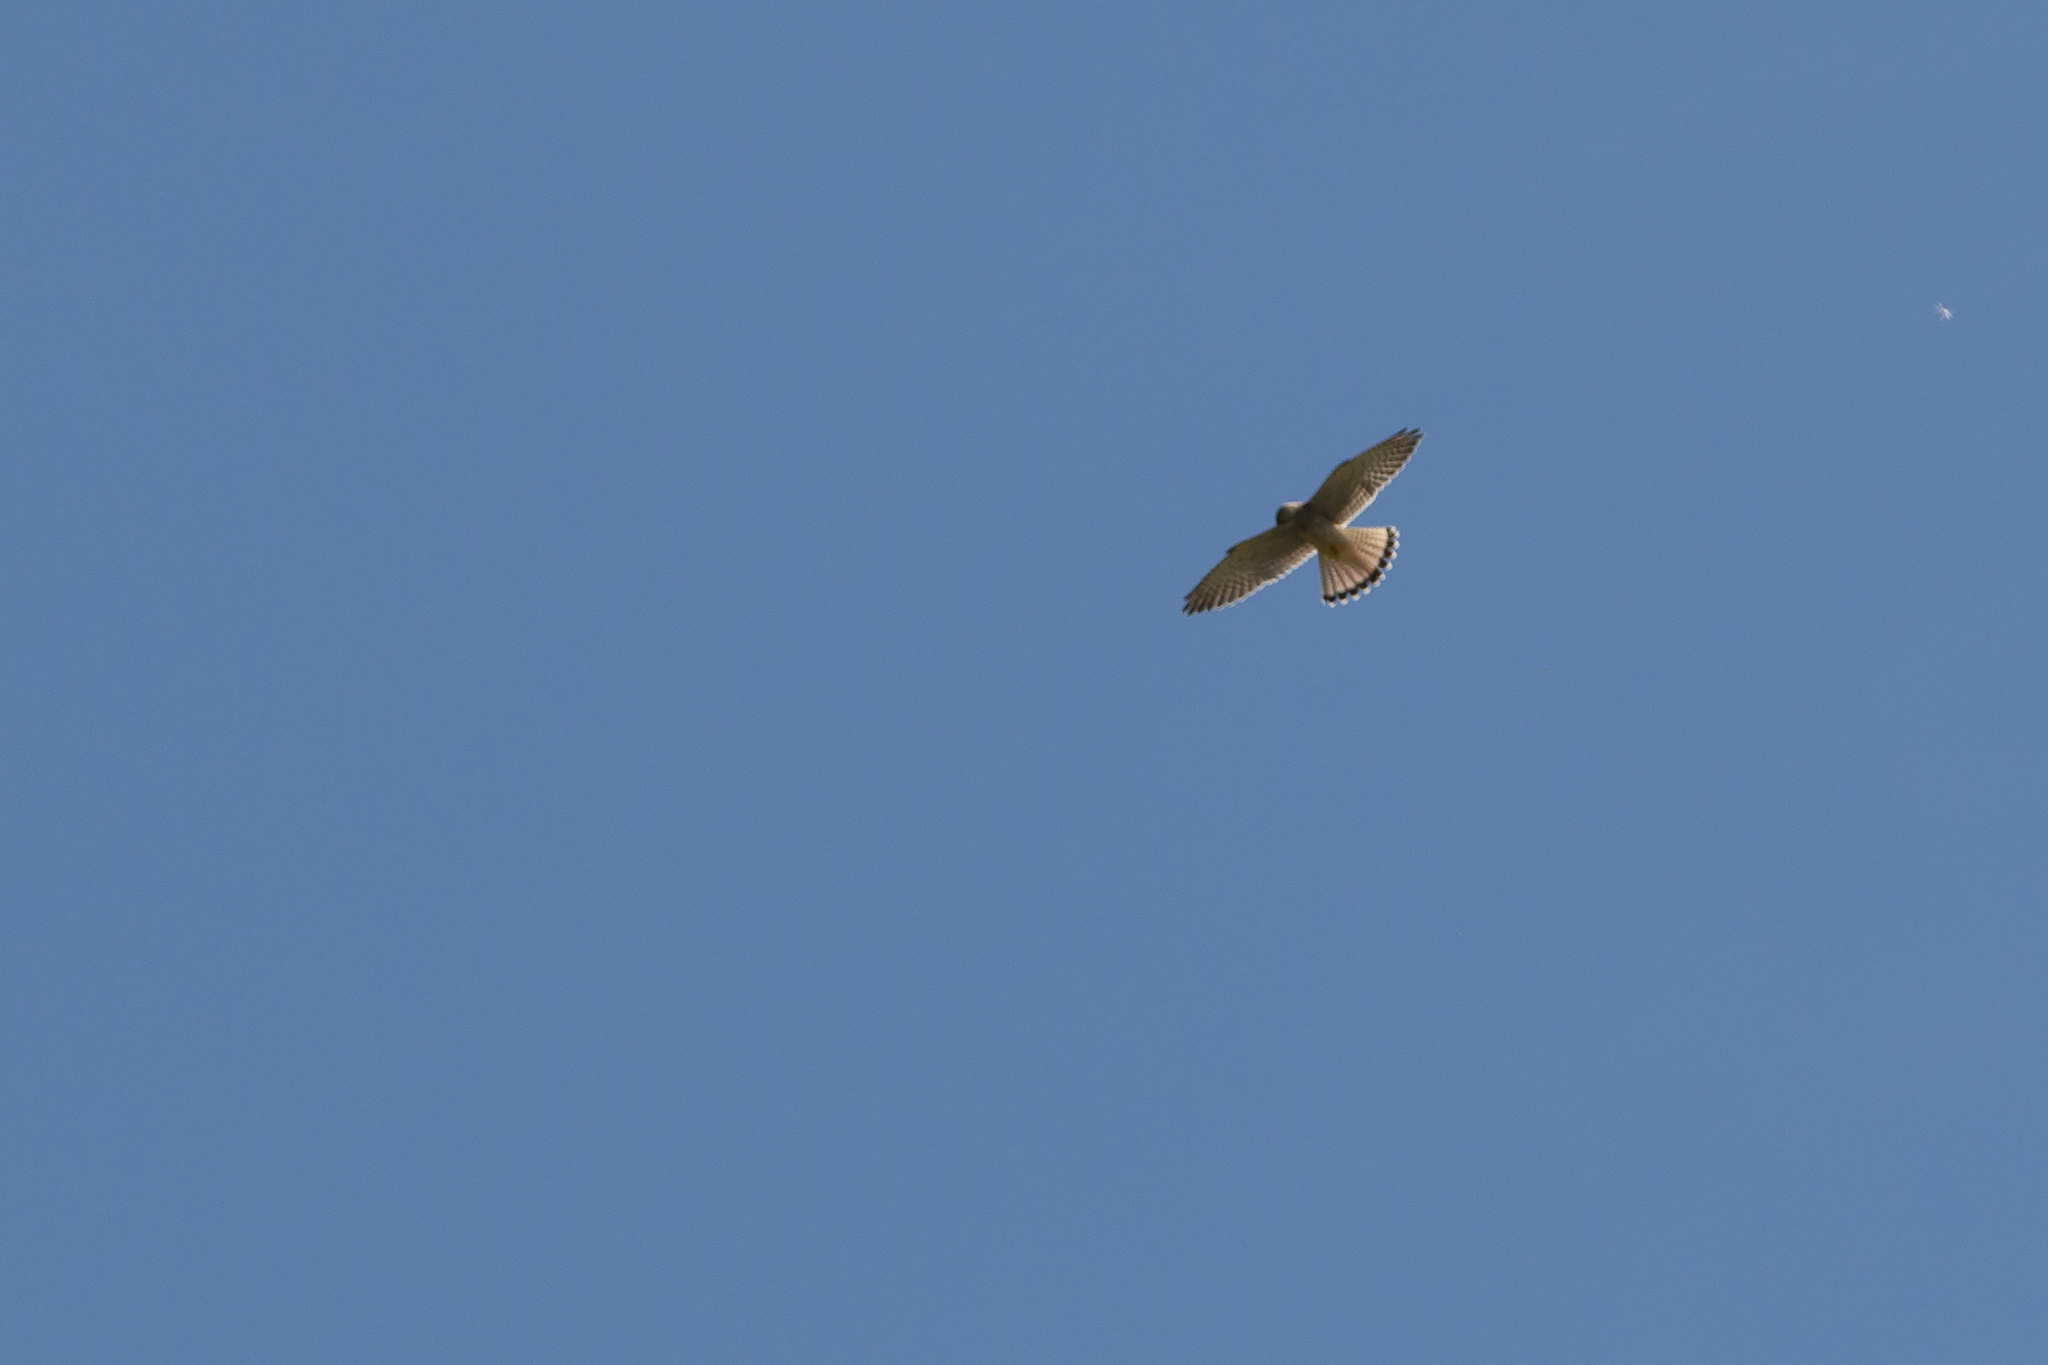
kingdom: Animalia
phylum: Chordata
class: Aves
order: Falconiformes
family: Falconidae
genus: Falco
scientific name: Falco tinnunculus
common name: Common kestrel
